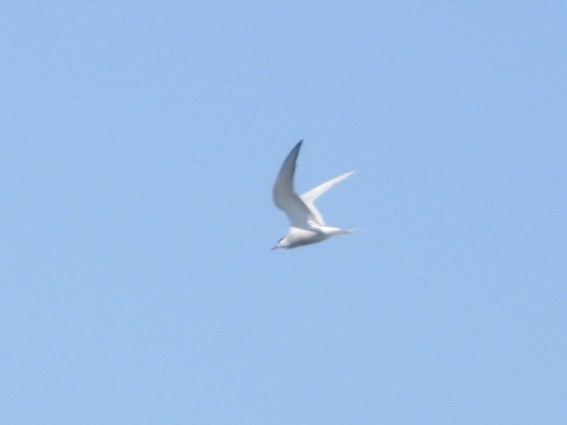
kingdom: Animalia
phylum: Chordata
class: Aves
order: Charadriiformes
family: Laridae
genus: Sterna
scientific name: Sterna hirundo
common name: Common tern
